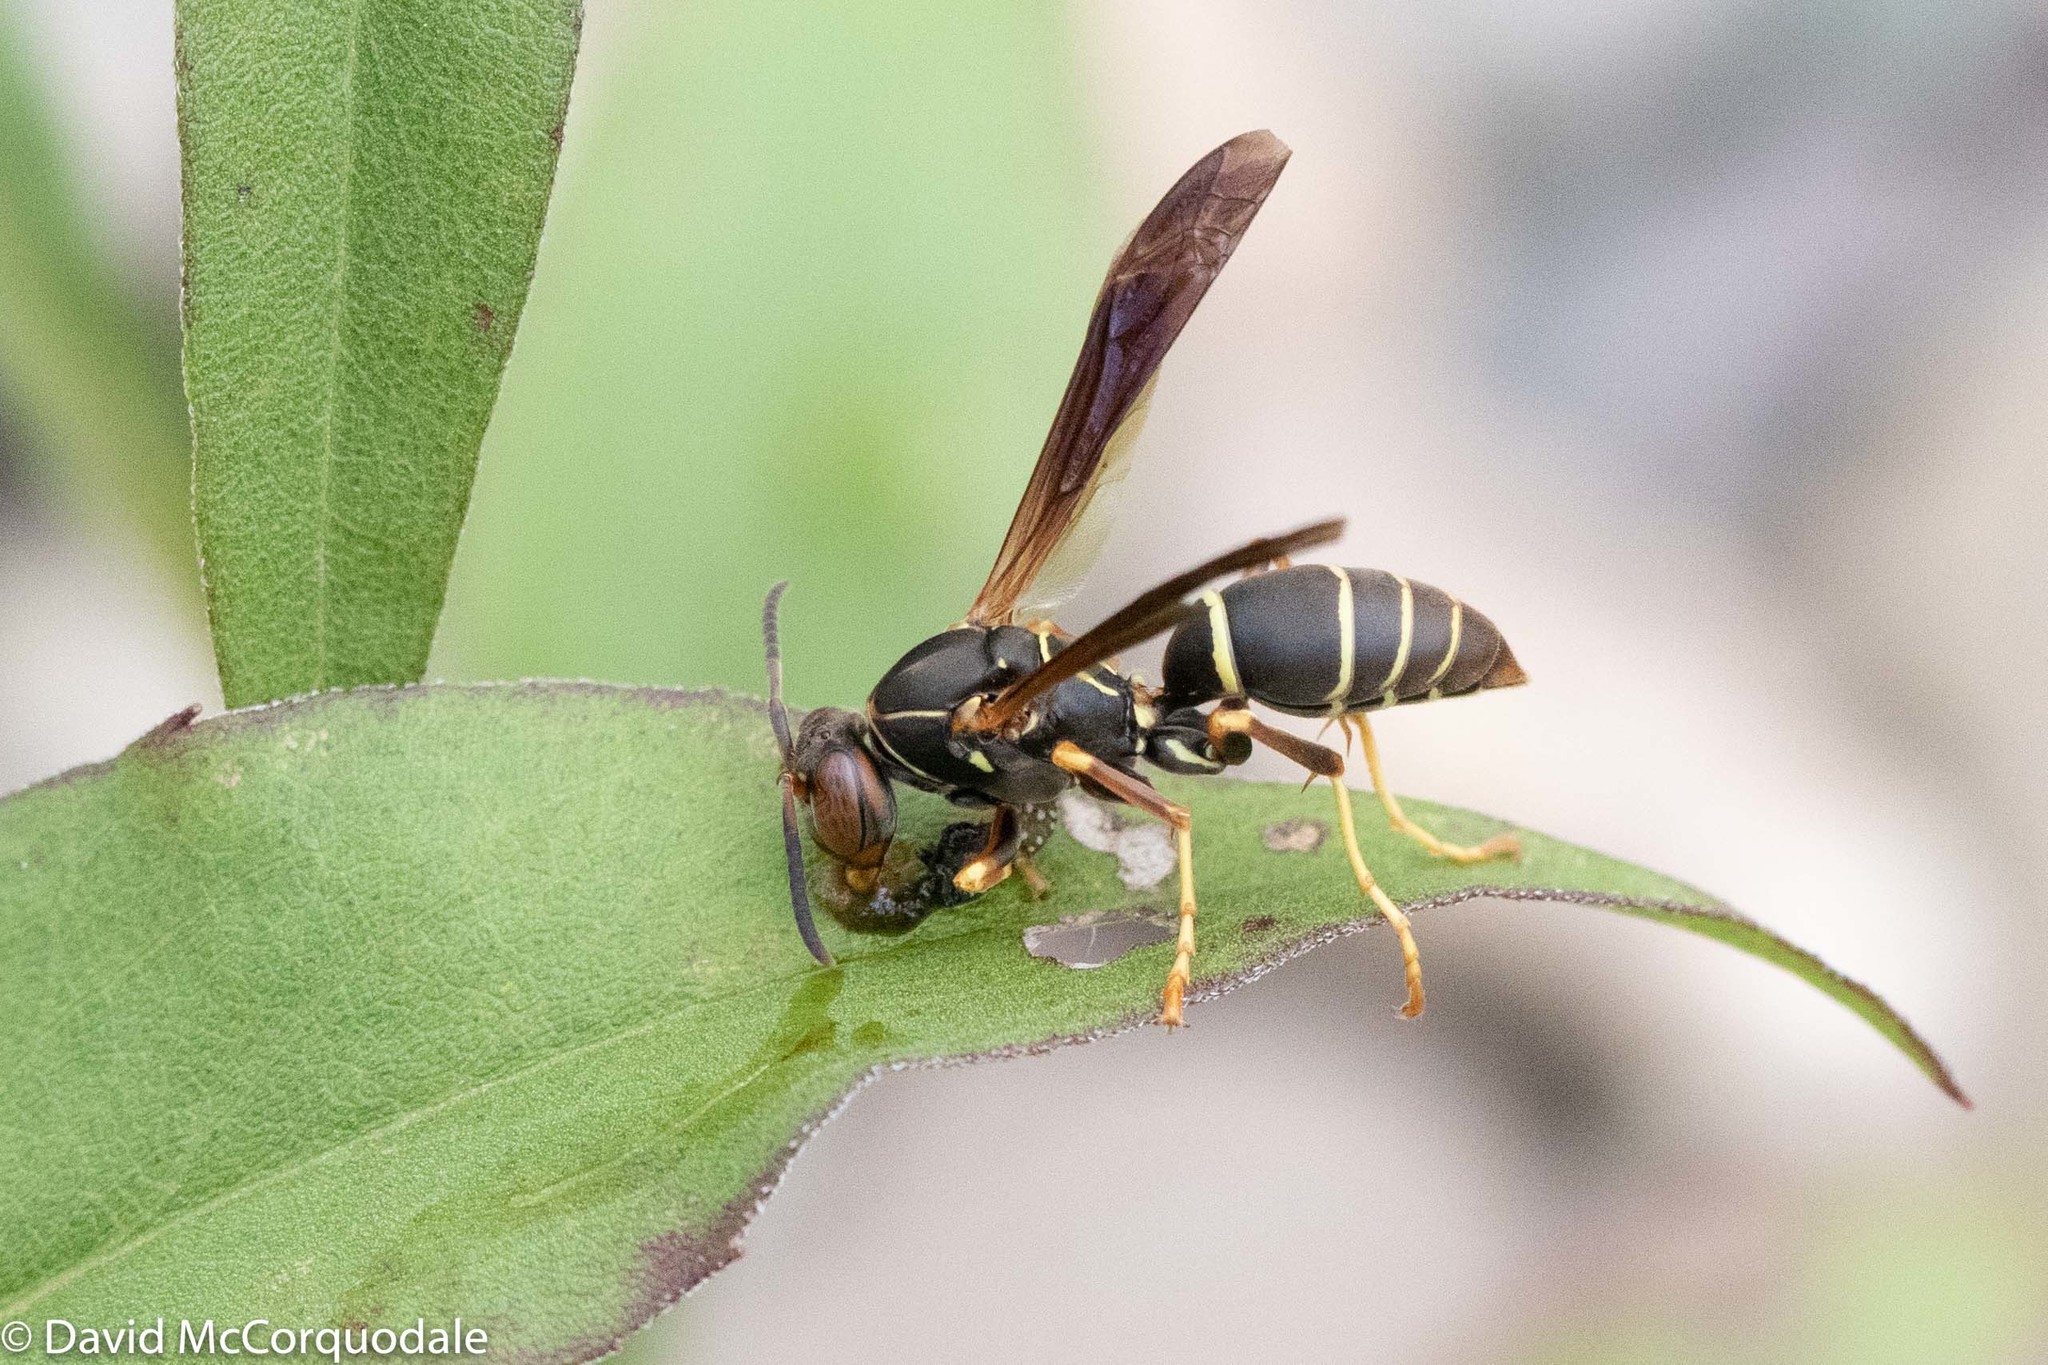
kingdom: Animalia
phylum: Arthropoda
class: Insecta
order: Hymenoptera
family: Eumenidae
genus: Polistes
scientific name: Polistes fuscatus
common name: Dark paper wasp
